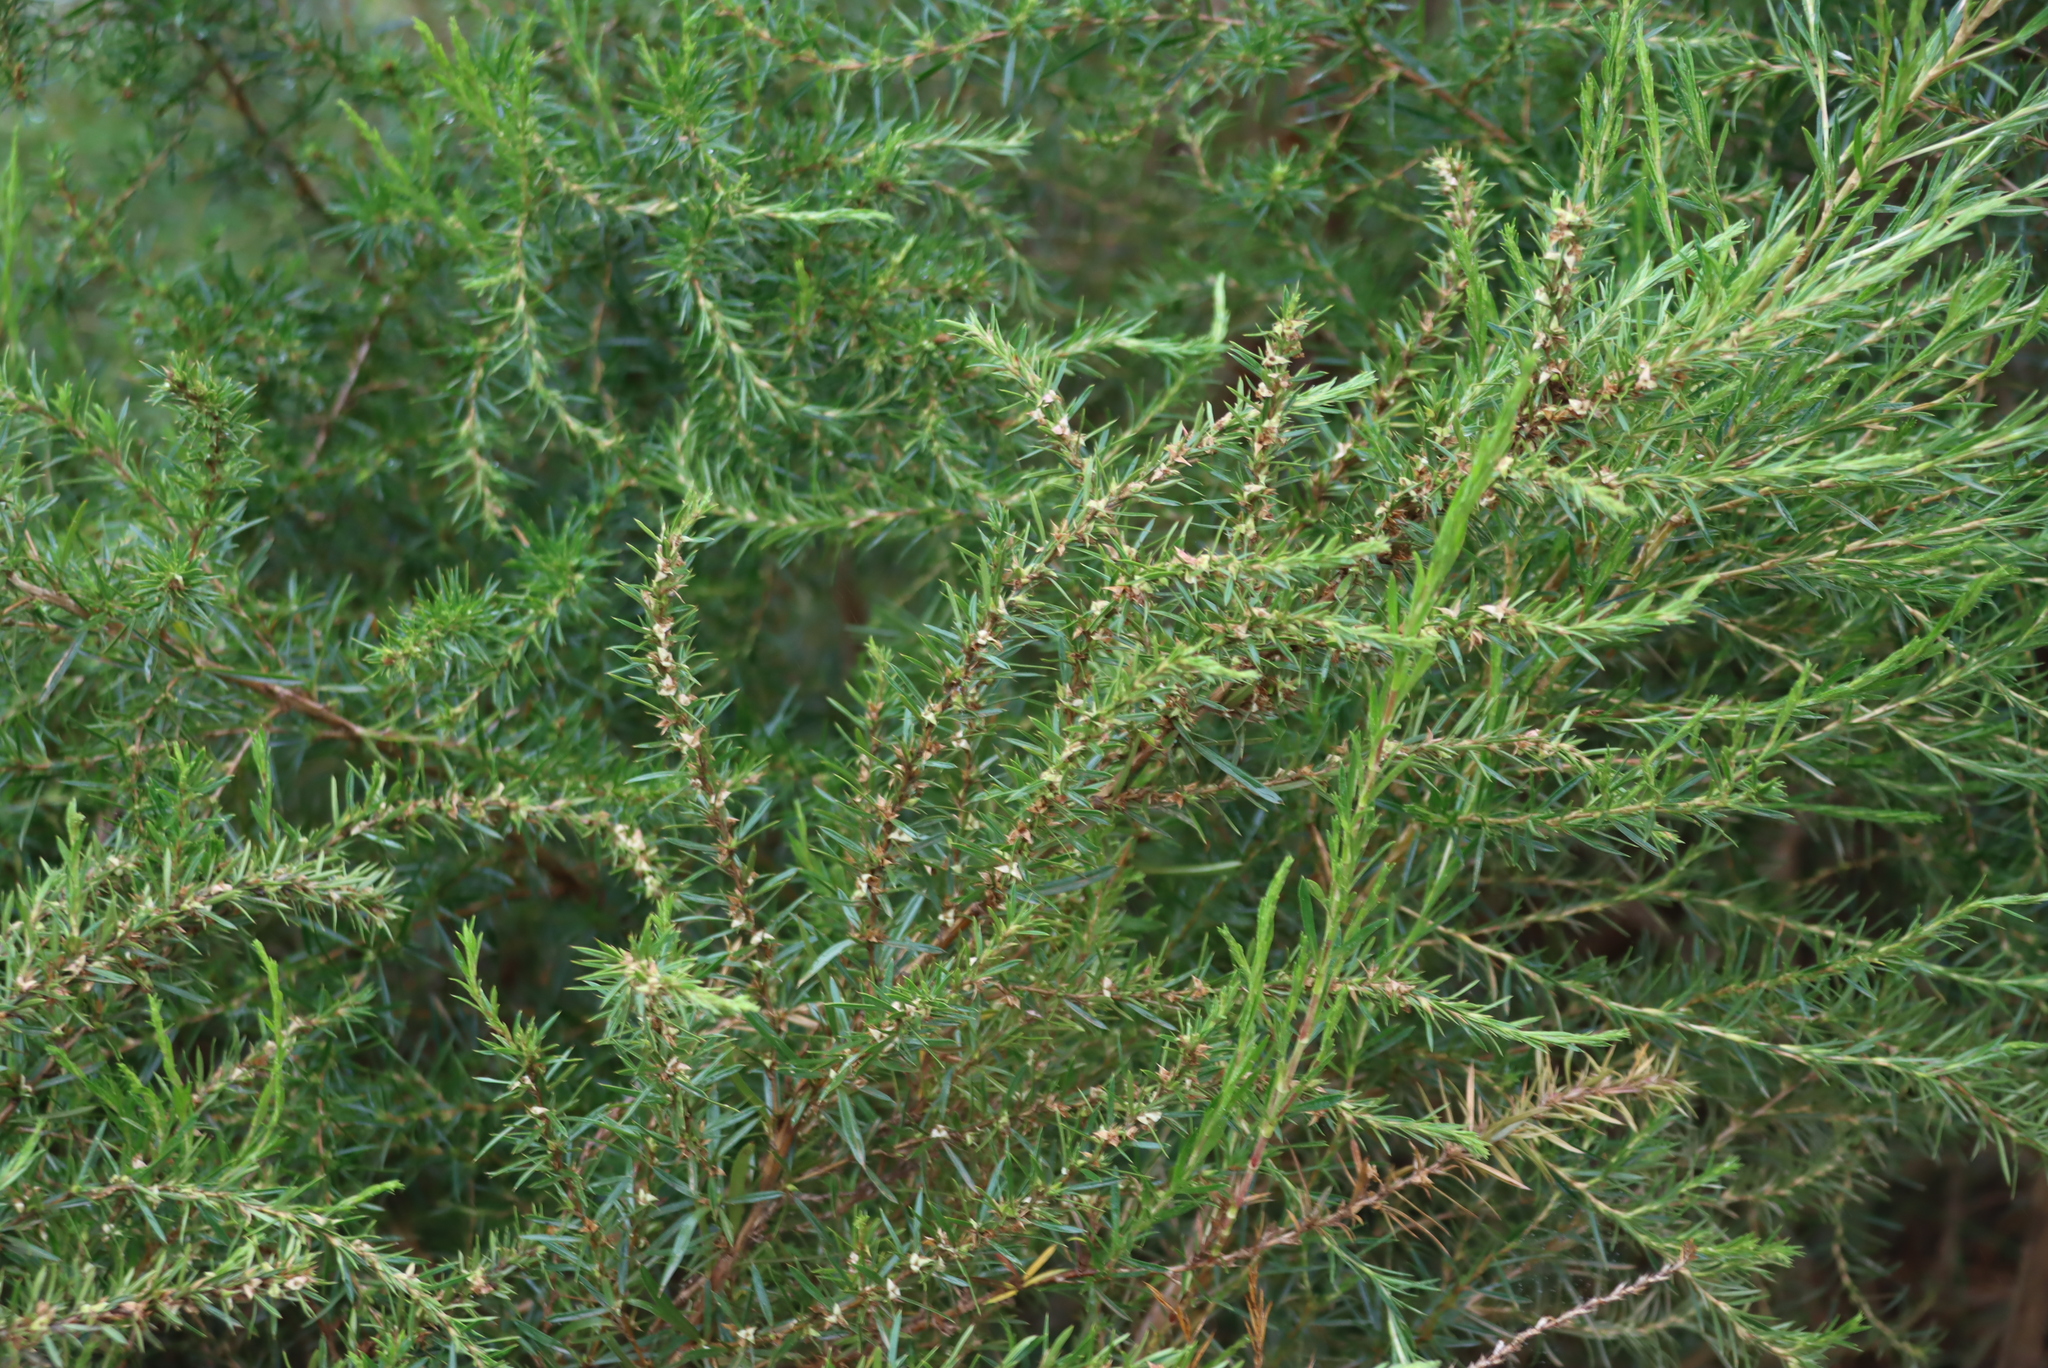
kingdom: Plantae
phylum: Tracheophyta
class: Magnoliopsida
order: Rosales
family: Rosaceae
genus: Cliffortia
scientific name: Cliffortia strobilifera
